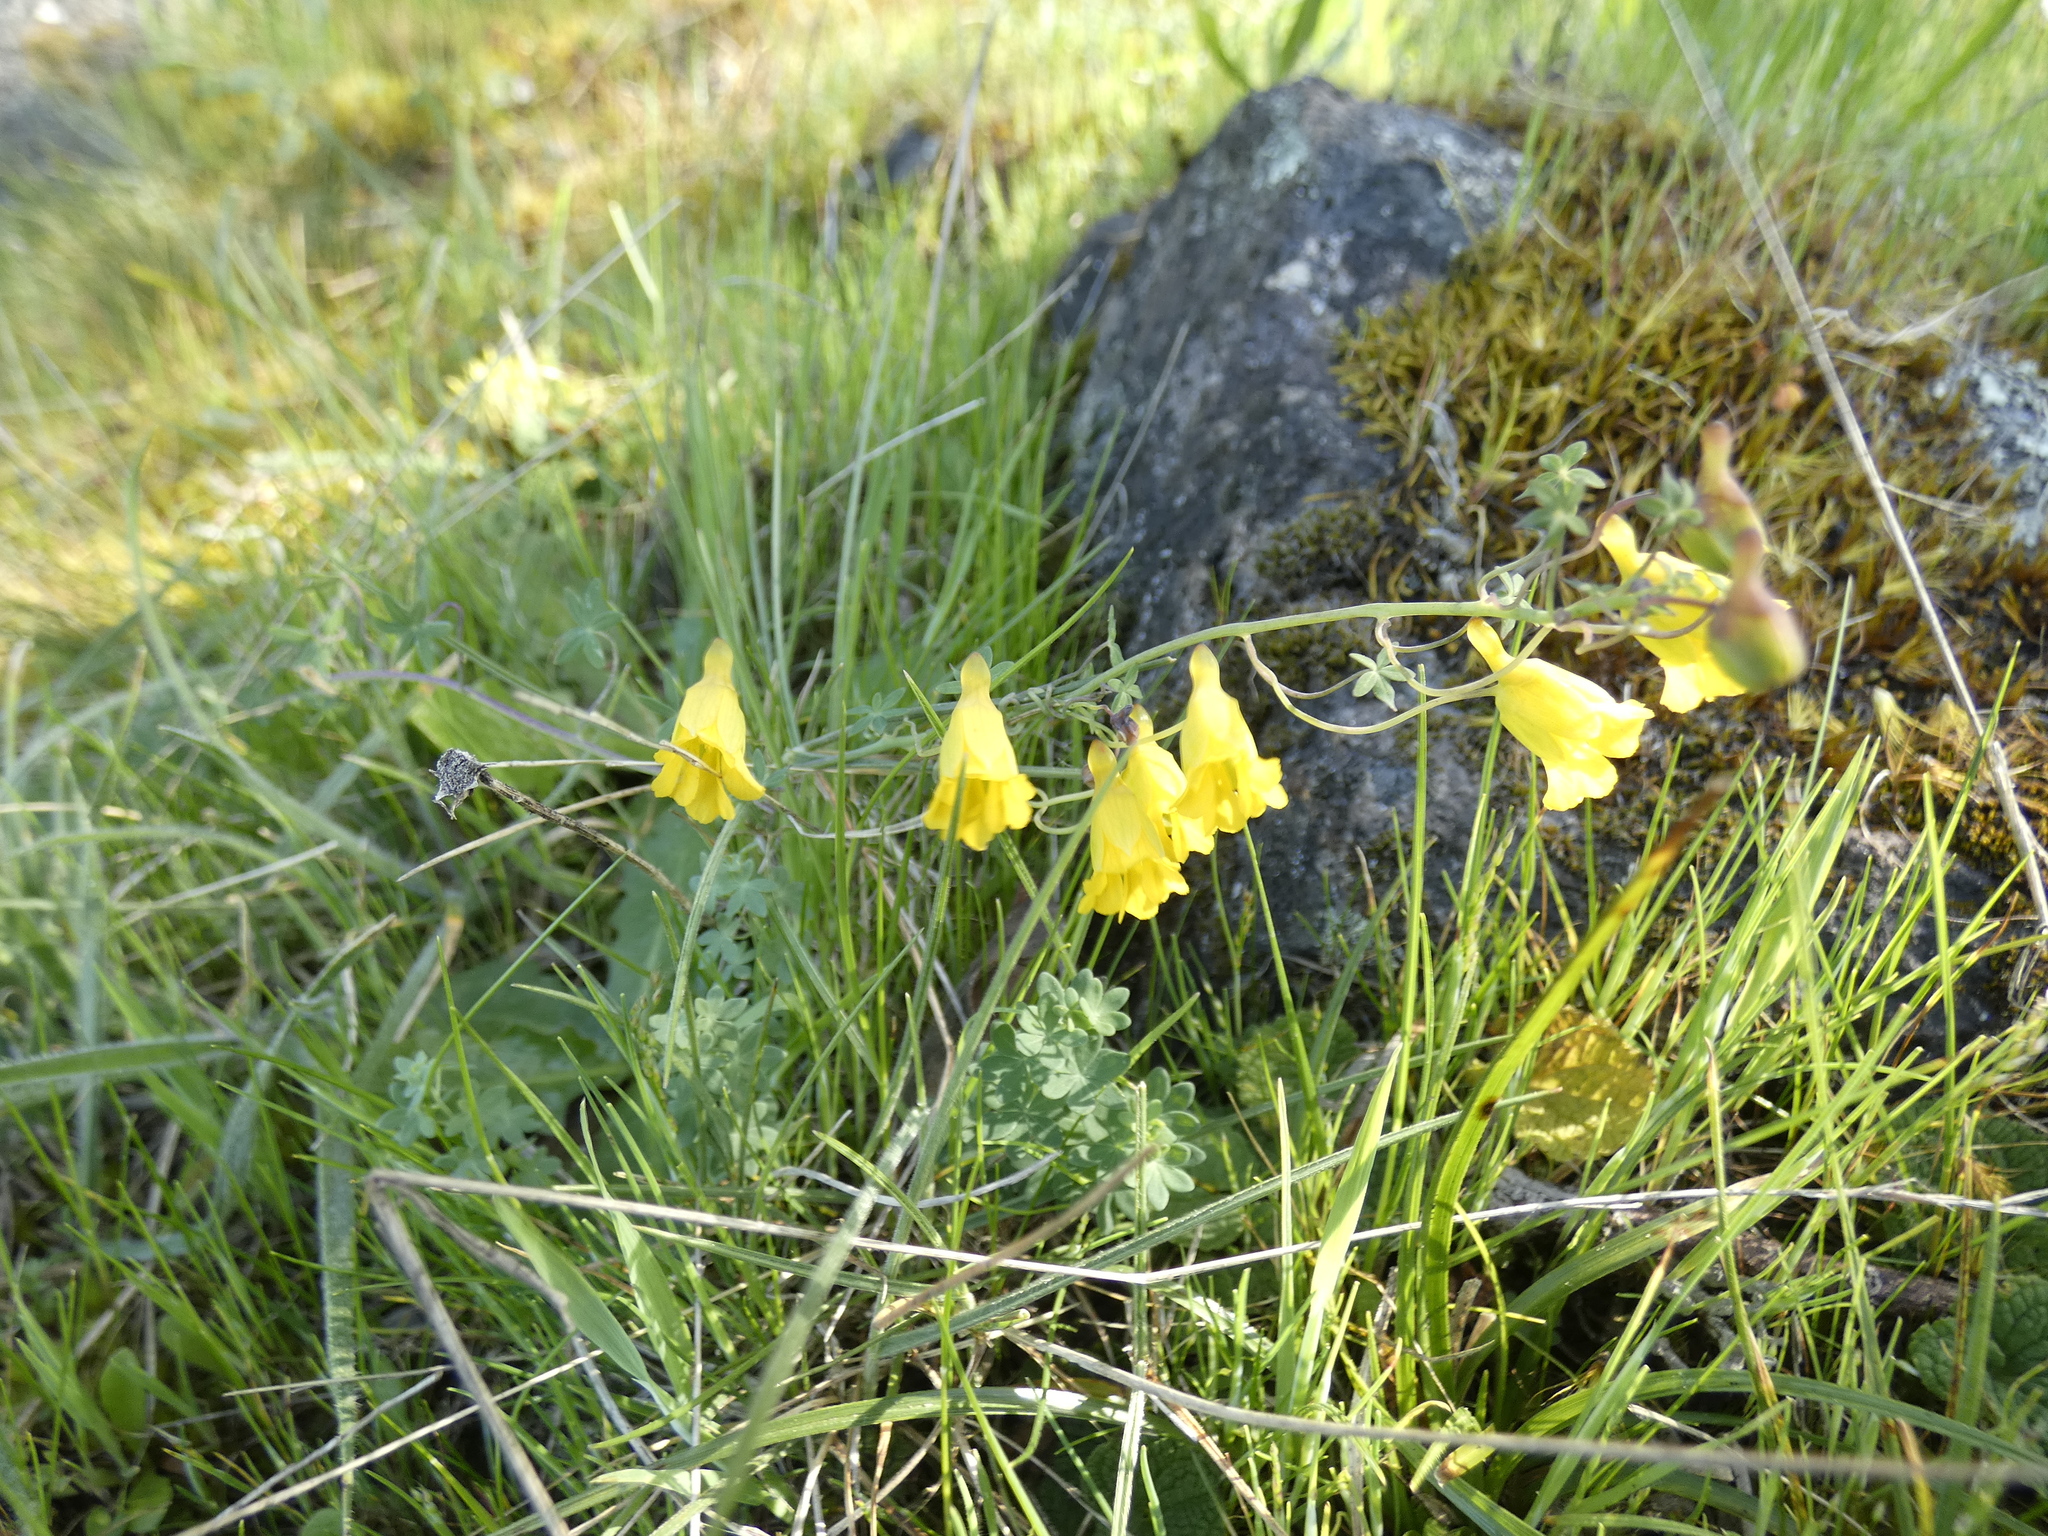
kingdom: Plantae
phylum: Tracheophyta
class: Magnoliopsida
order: Brassicales
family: Tropaeolaceae
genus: Tropaeolum
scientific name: Tropaeolum brachyceras
